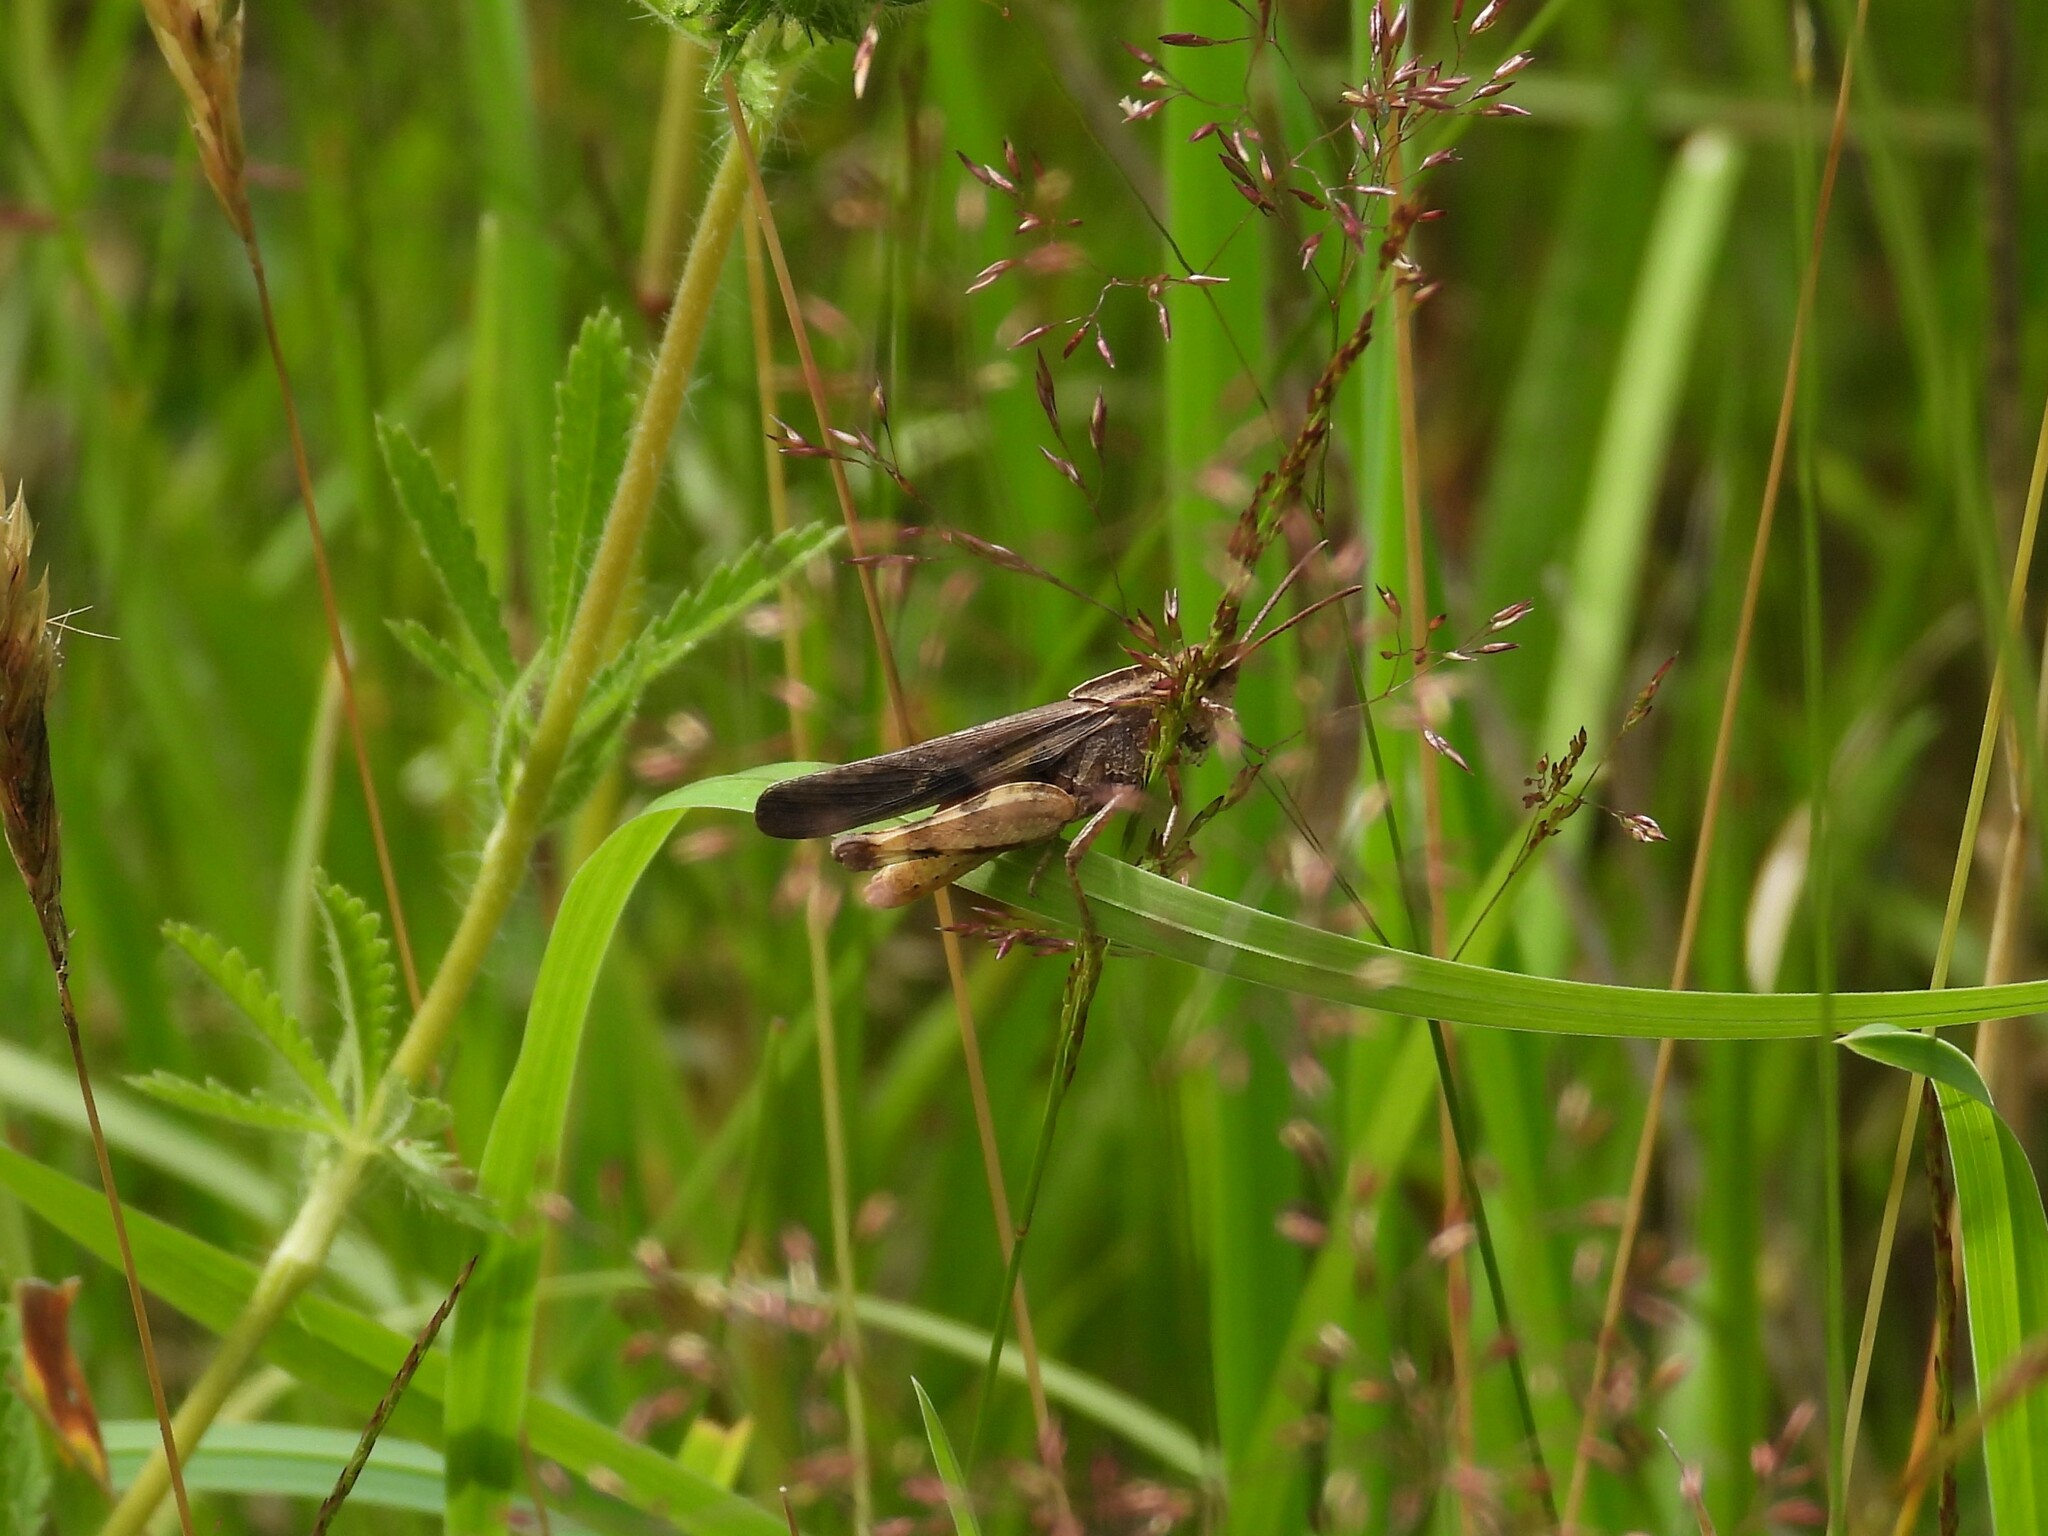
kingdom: Animalia
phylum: Arthropoda
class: Insecta
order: Orthoptera
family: Acrididae
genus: Chortophaga
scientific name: Chortophaga viridifasciata
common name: Green-striped grasshopper
